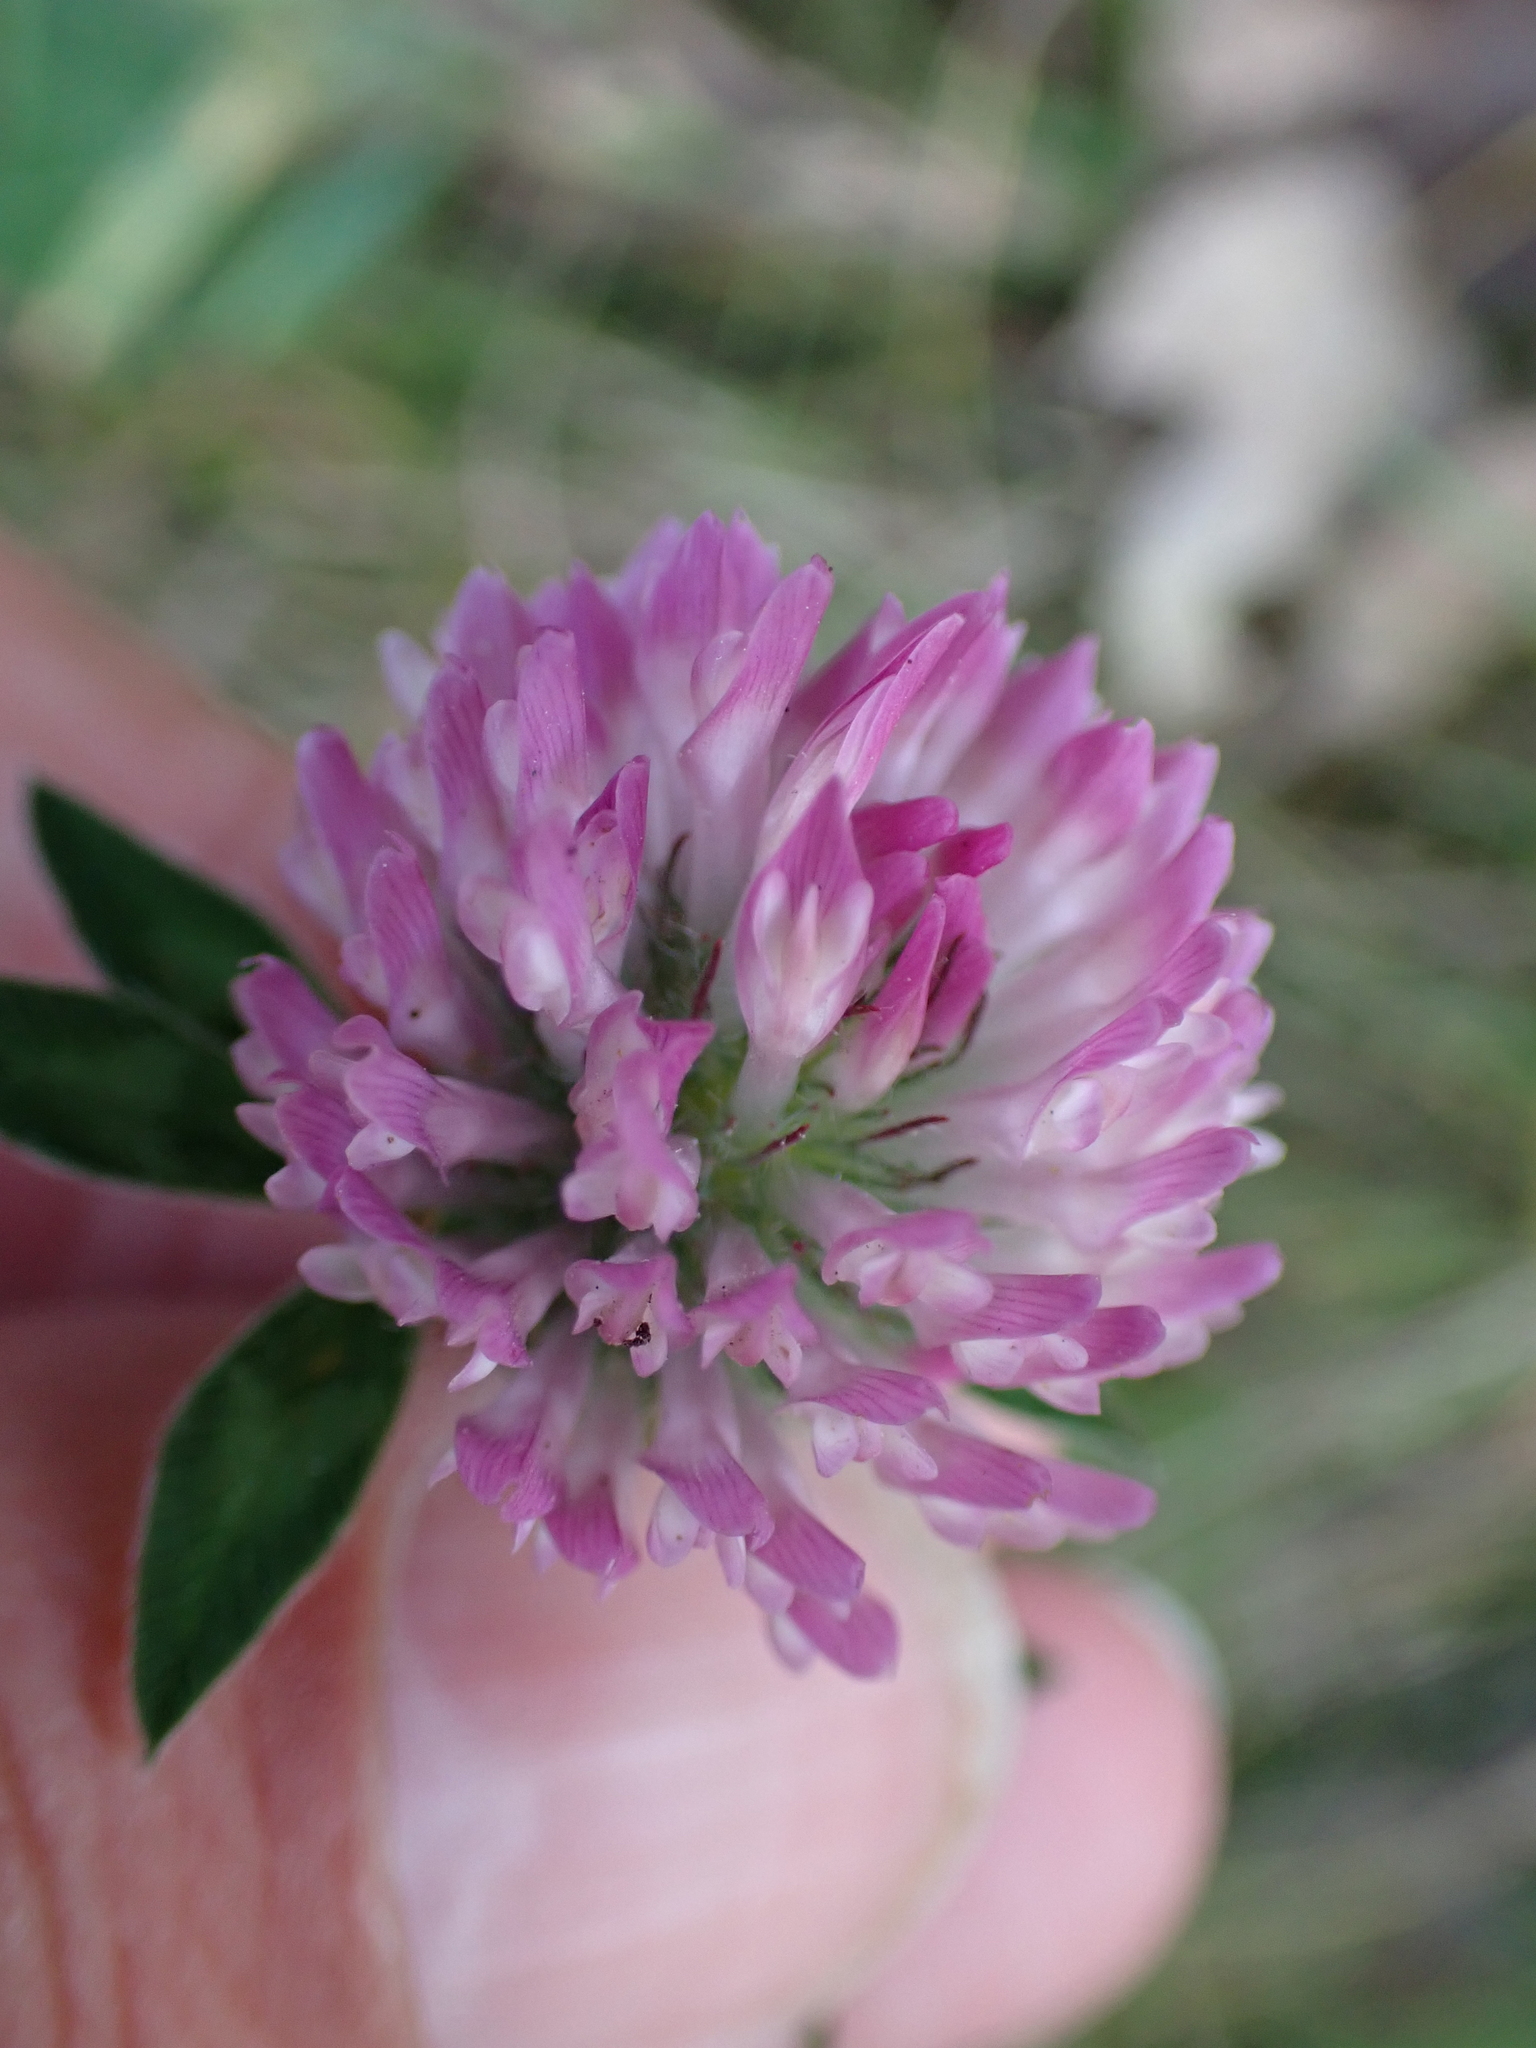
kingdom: Plantae
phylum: Tracheophyta
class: Magnoliopsida
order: Fabales
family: Fabaceae
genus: Trifolium
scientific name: Trifolium pratense
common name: Red clover
